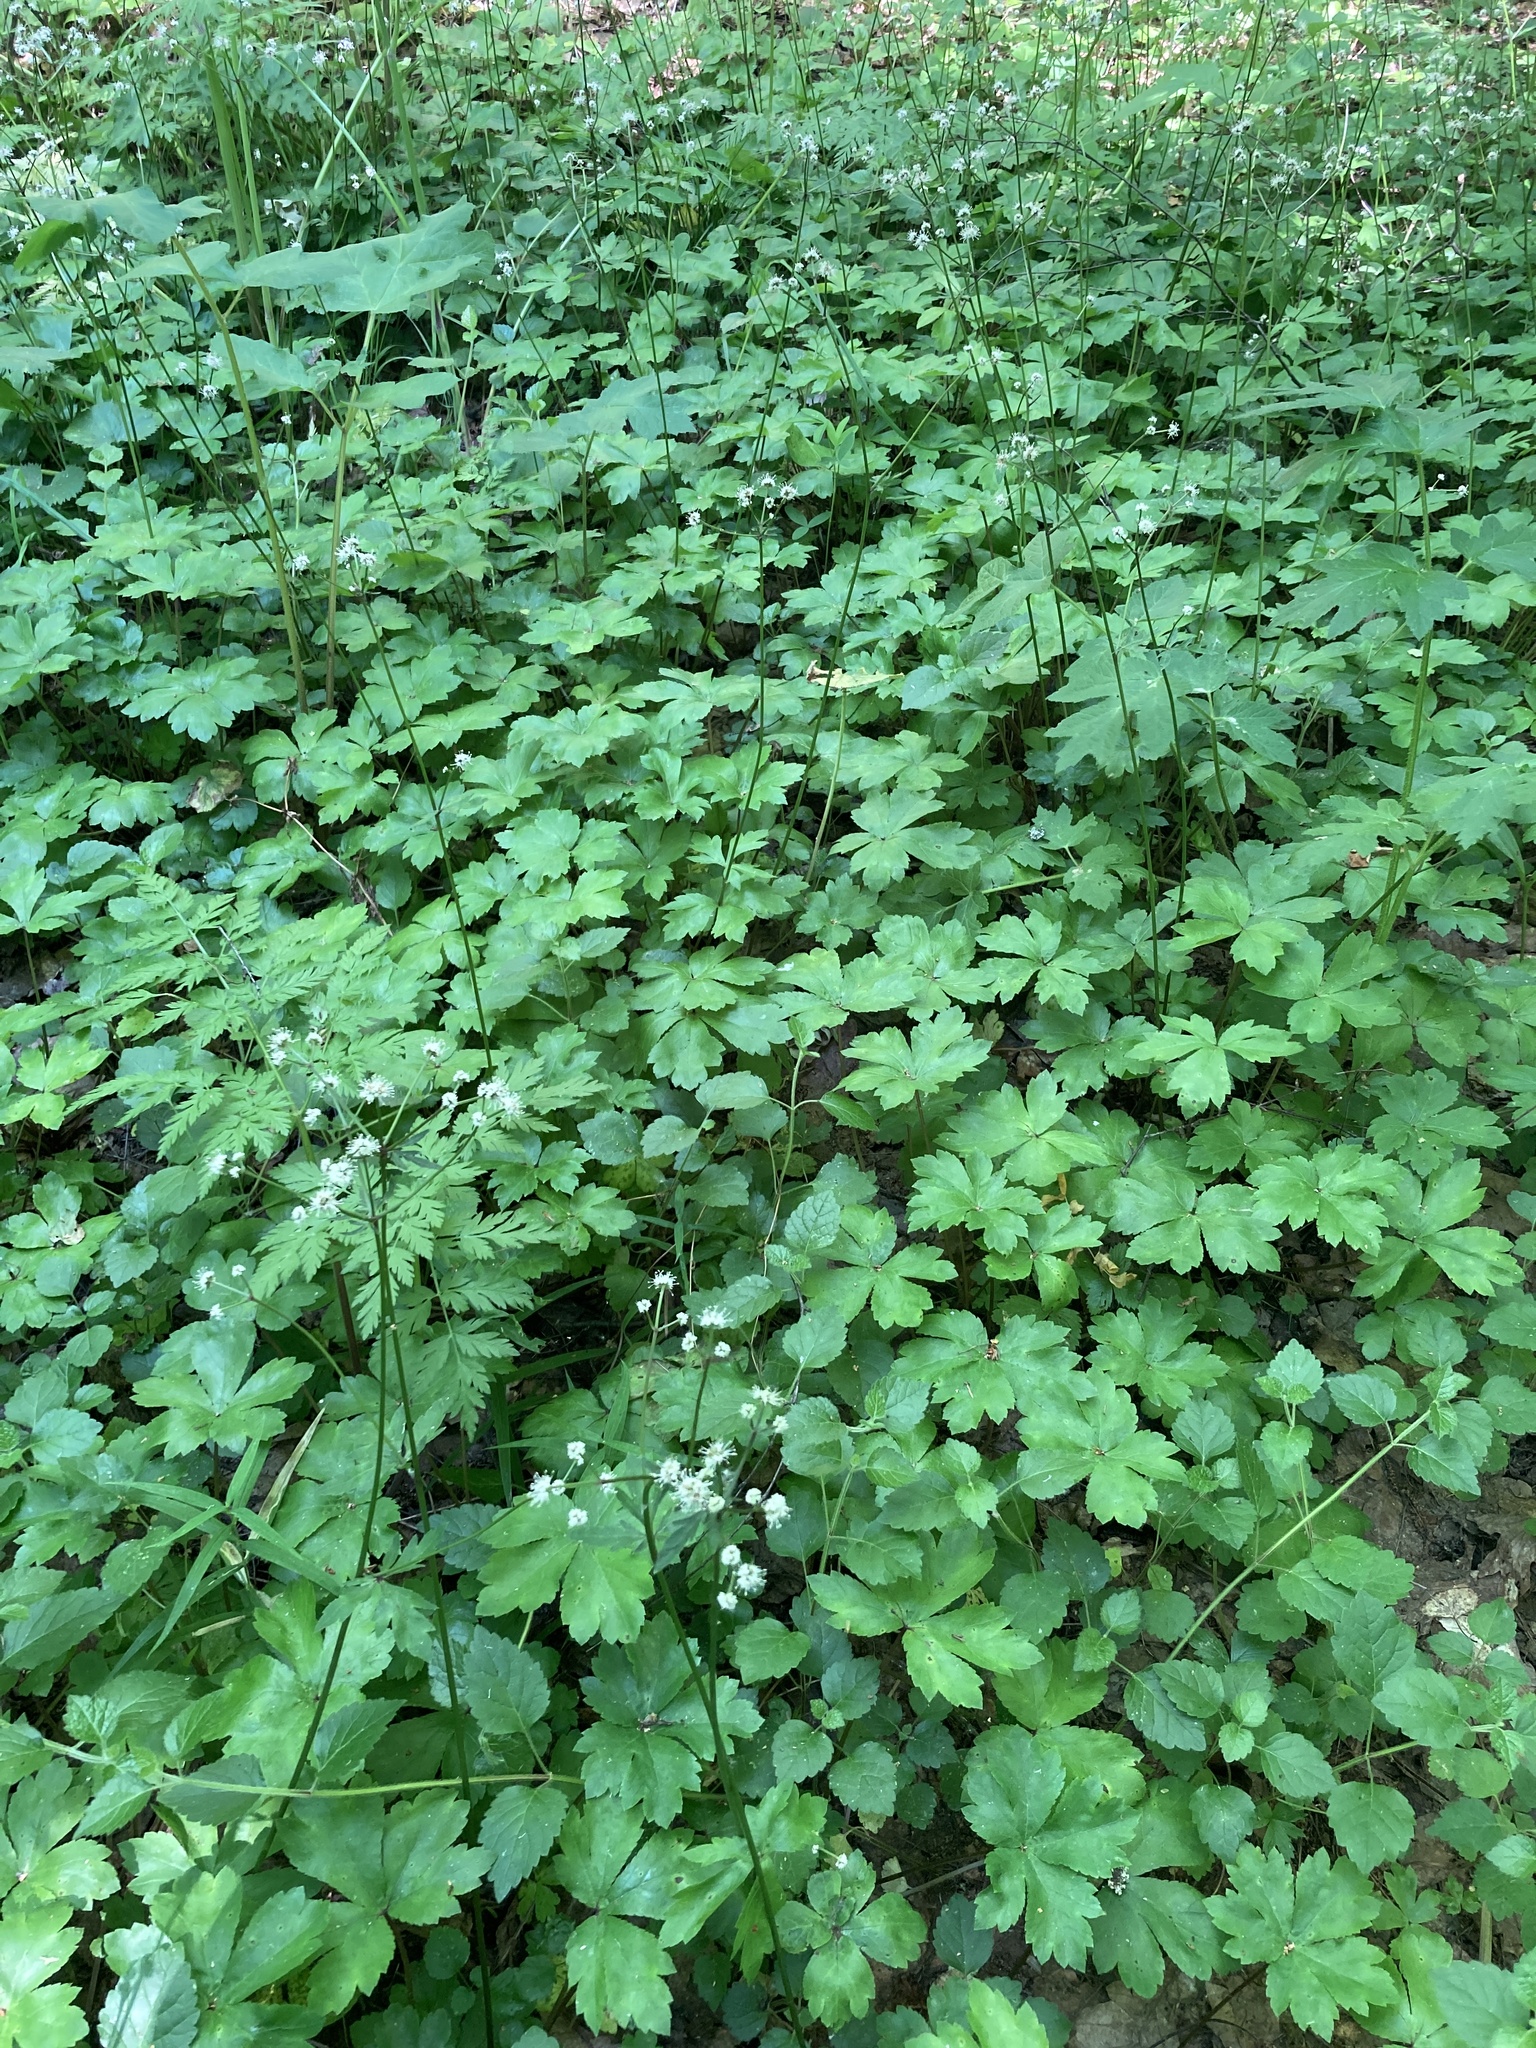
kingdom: Plantae
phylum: Tracheophyta
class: Magnoliopsida
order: Apiales
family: Apiaceae
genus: Sanicula
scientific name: Sanicula europaea
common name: Sanicle
